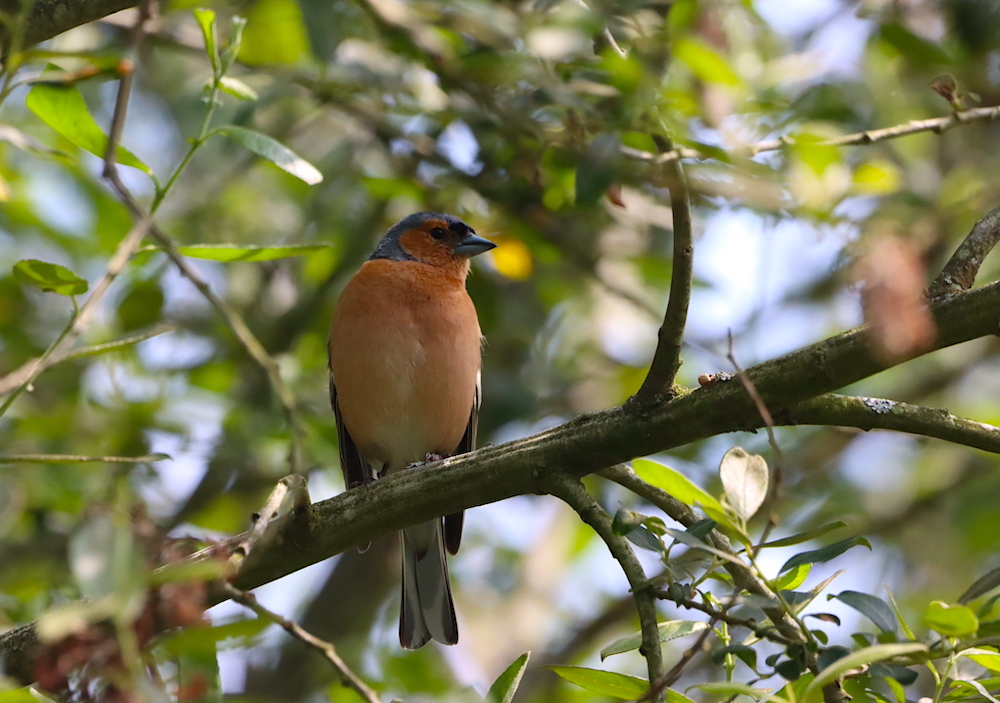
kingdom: Animalia
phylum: Chordata
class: Aves
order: Passeriformes
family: Fringillidae
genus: Fringilla
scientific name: Fringilla coelebs
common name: Common chaffinch
